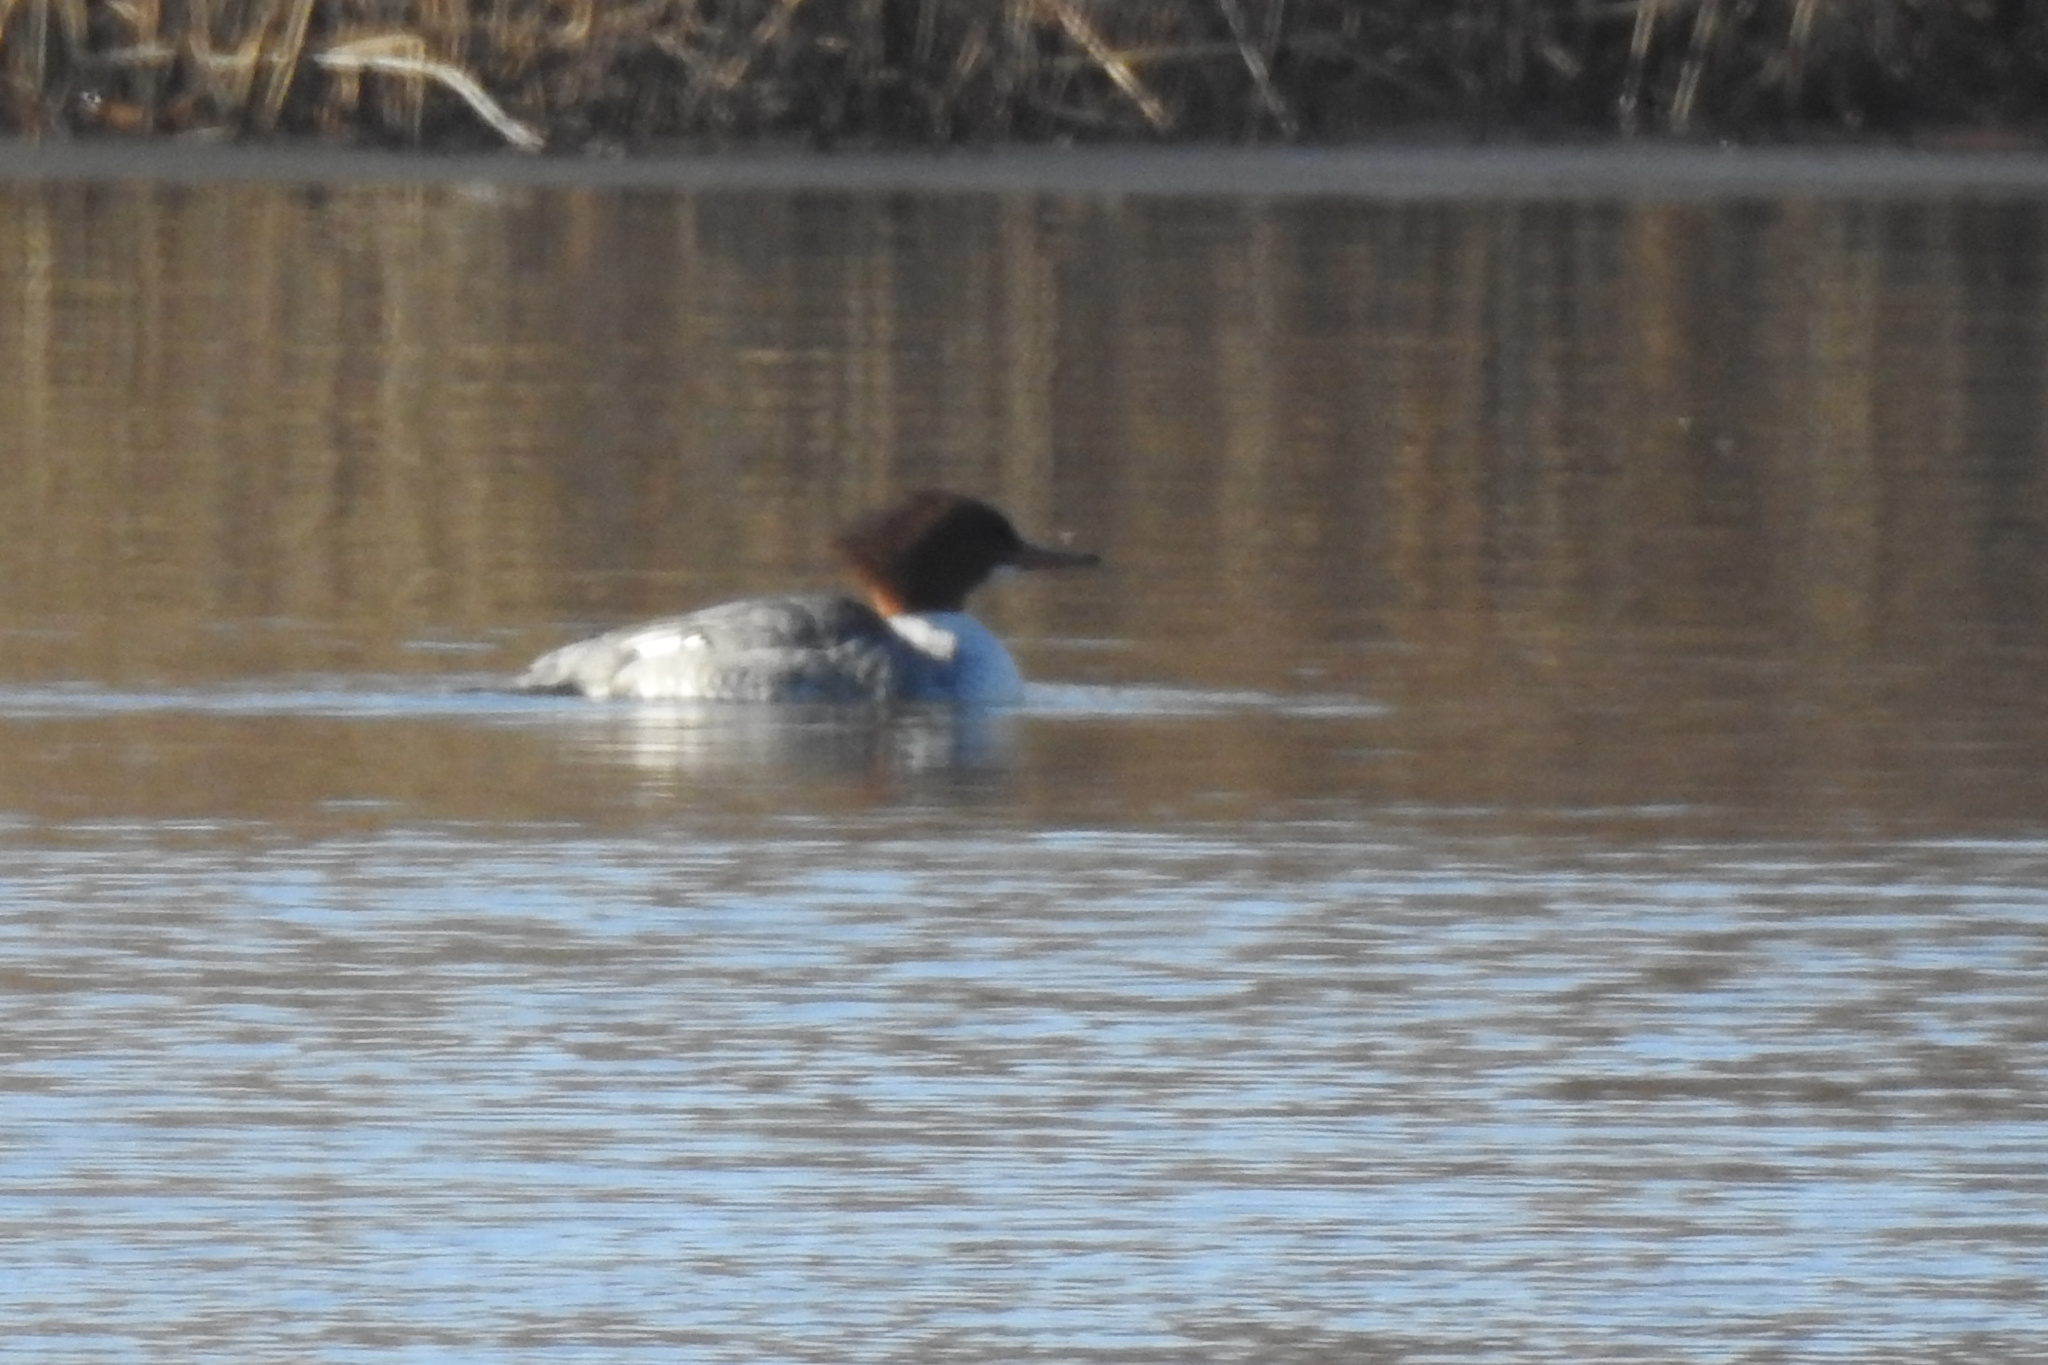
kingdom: Animalia
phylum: Chordata
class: Aves
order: Anseriformes
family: Anatidae
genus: Mergus
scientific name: Mergus merganser
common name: Common merganser
